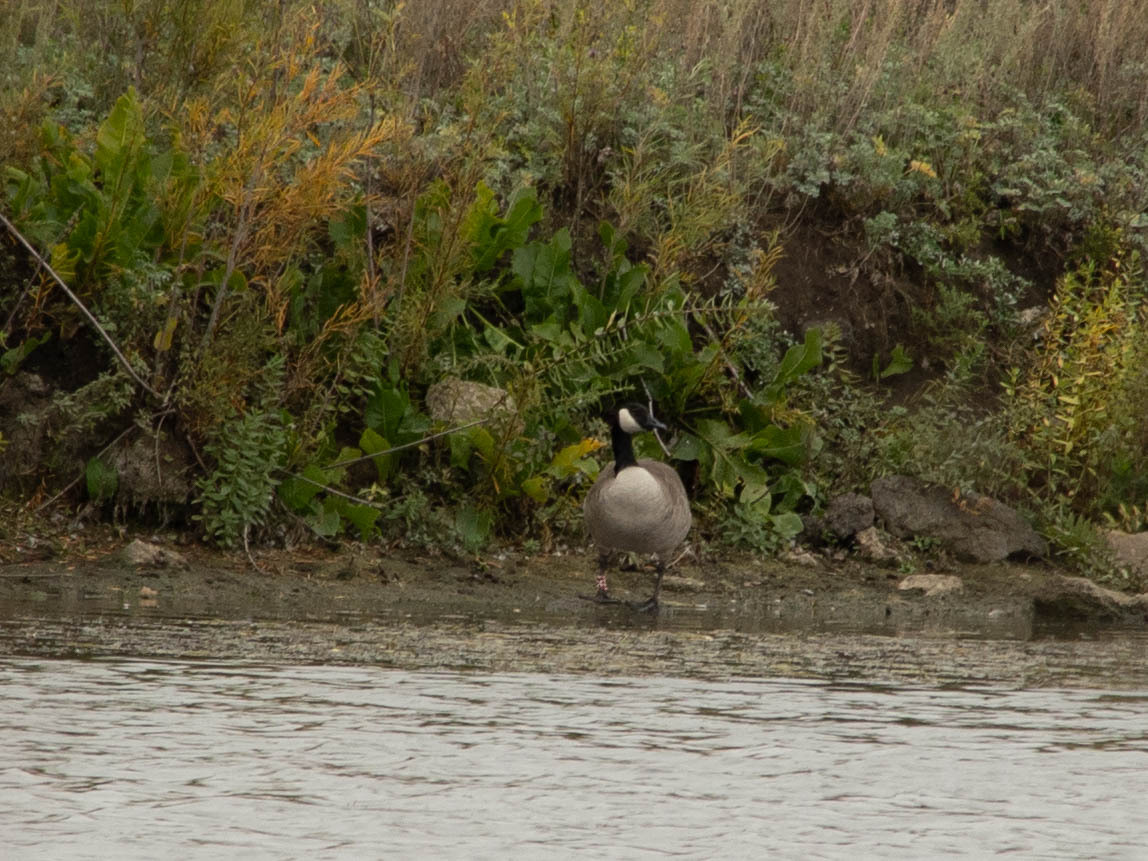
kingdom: Animalia
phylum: Chordata
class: Aves
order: Anseriformes
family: Anatidae
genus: Branta
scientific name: Branta canadensis
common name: Canada goose
